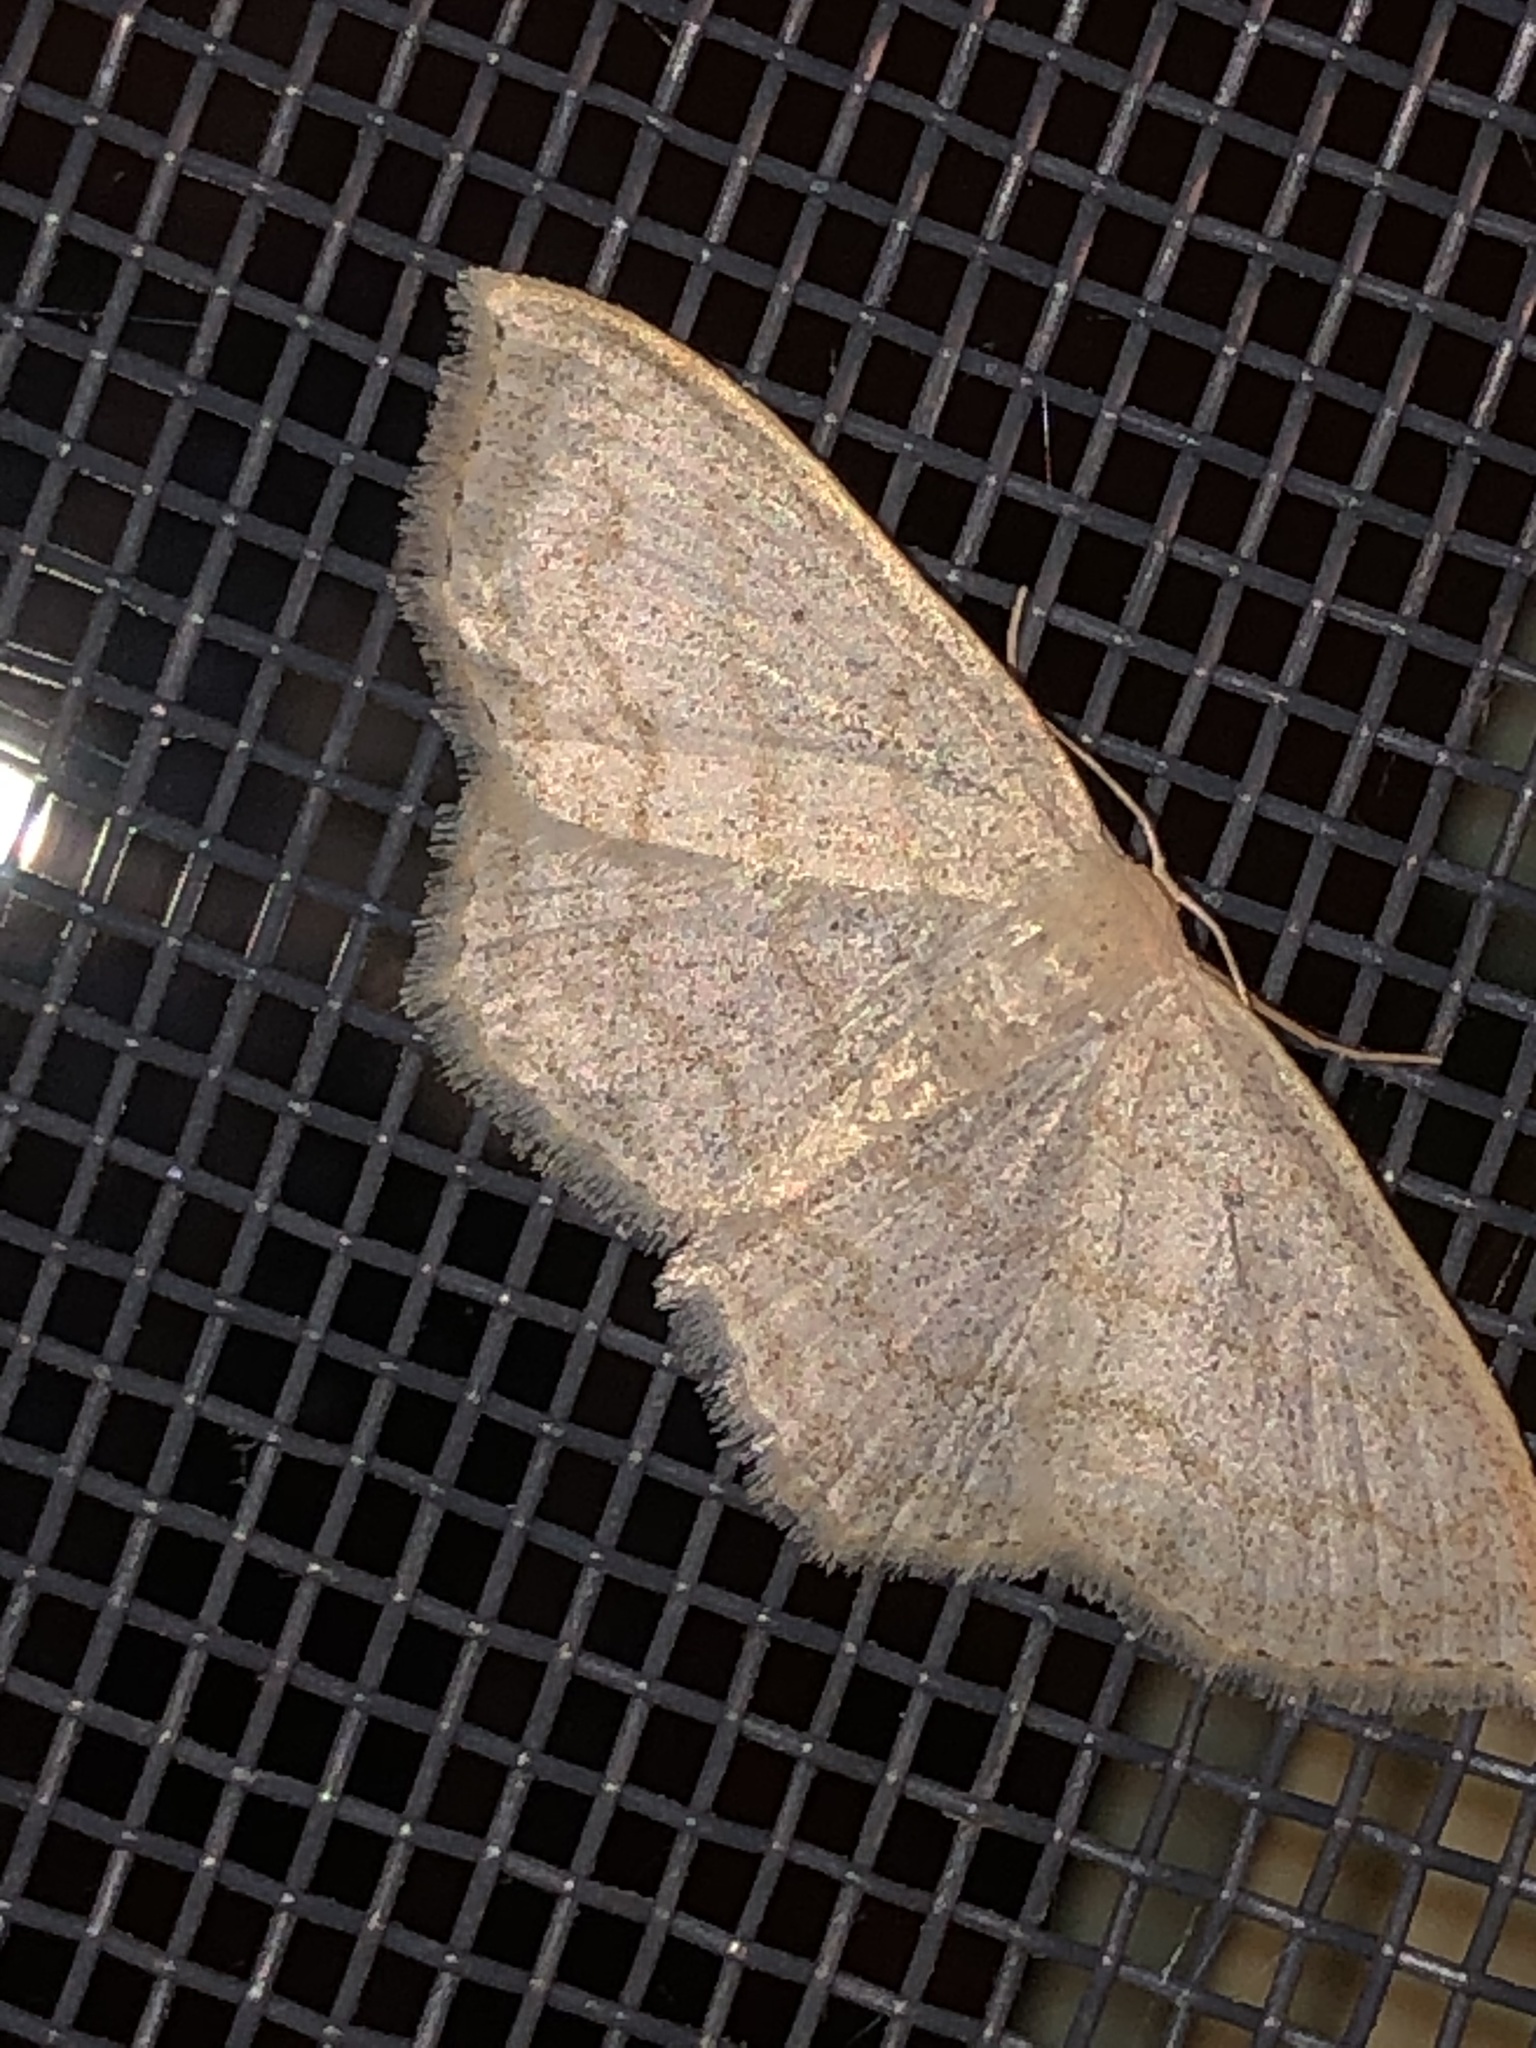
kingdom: Animalia
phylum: Arthropoda
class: Insecta
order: Lepidoptera
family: Geometridae
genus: Scopula
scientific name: Scopula limboundata
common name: Large lace border
